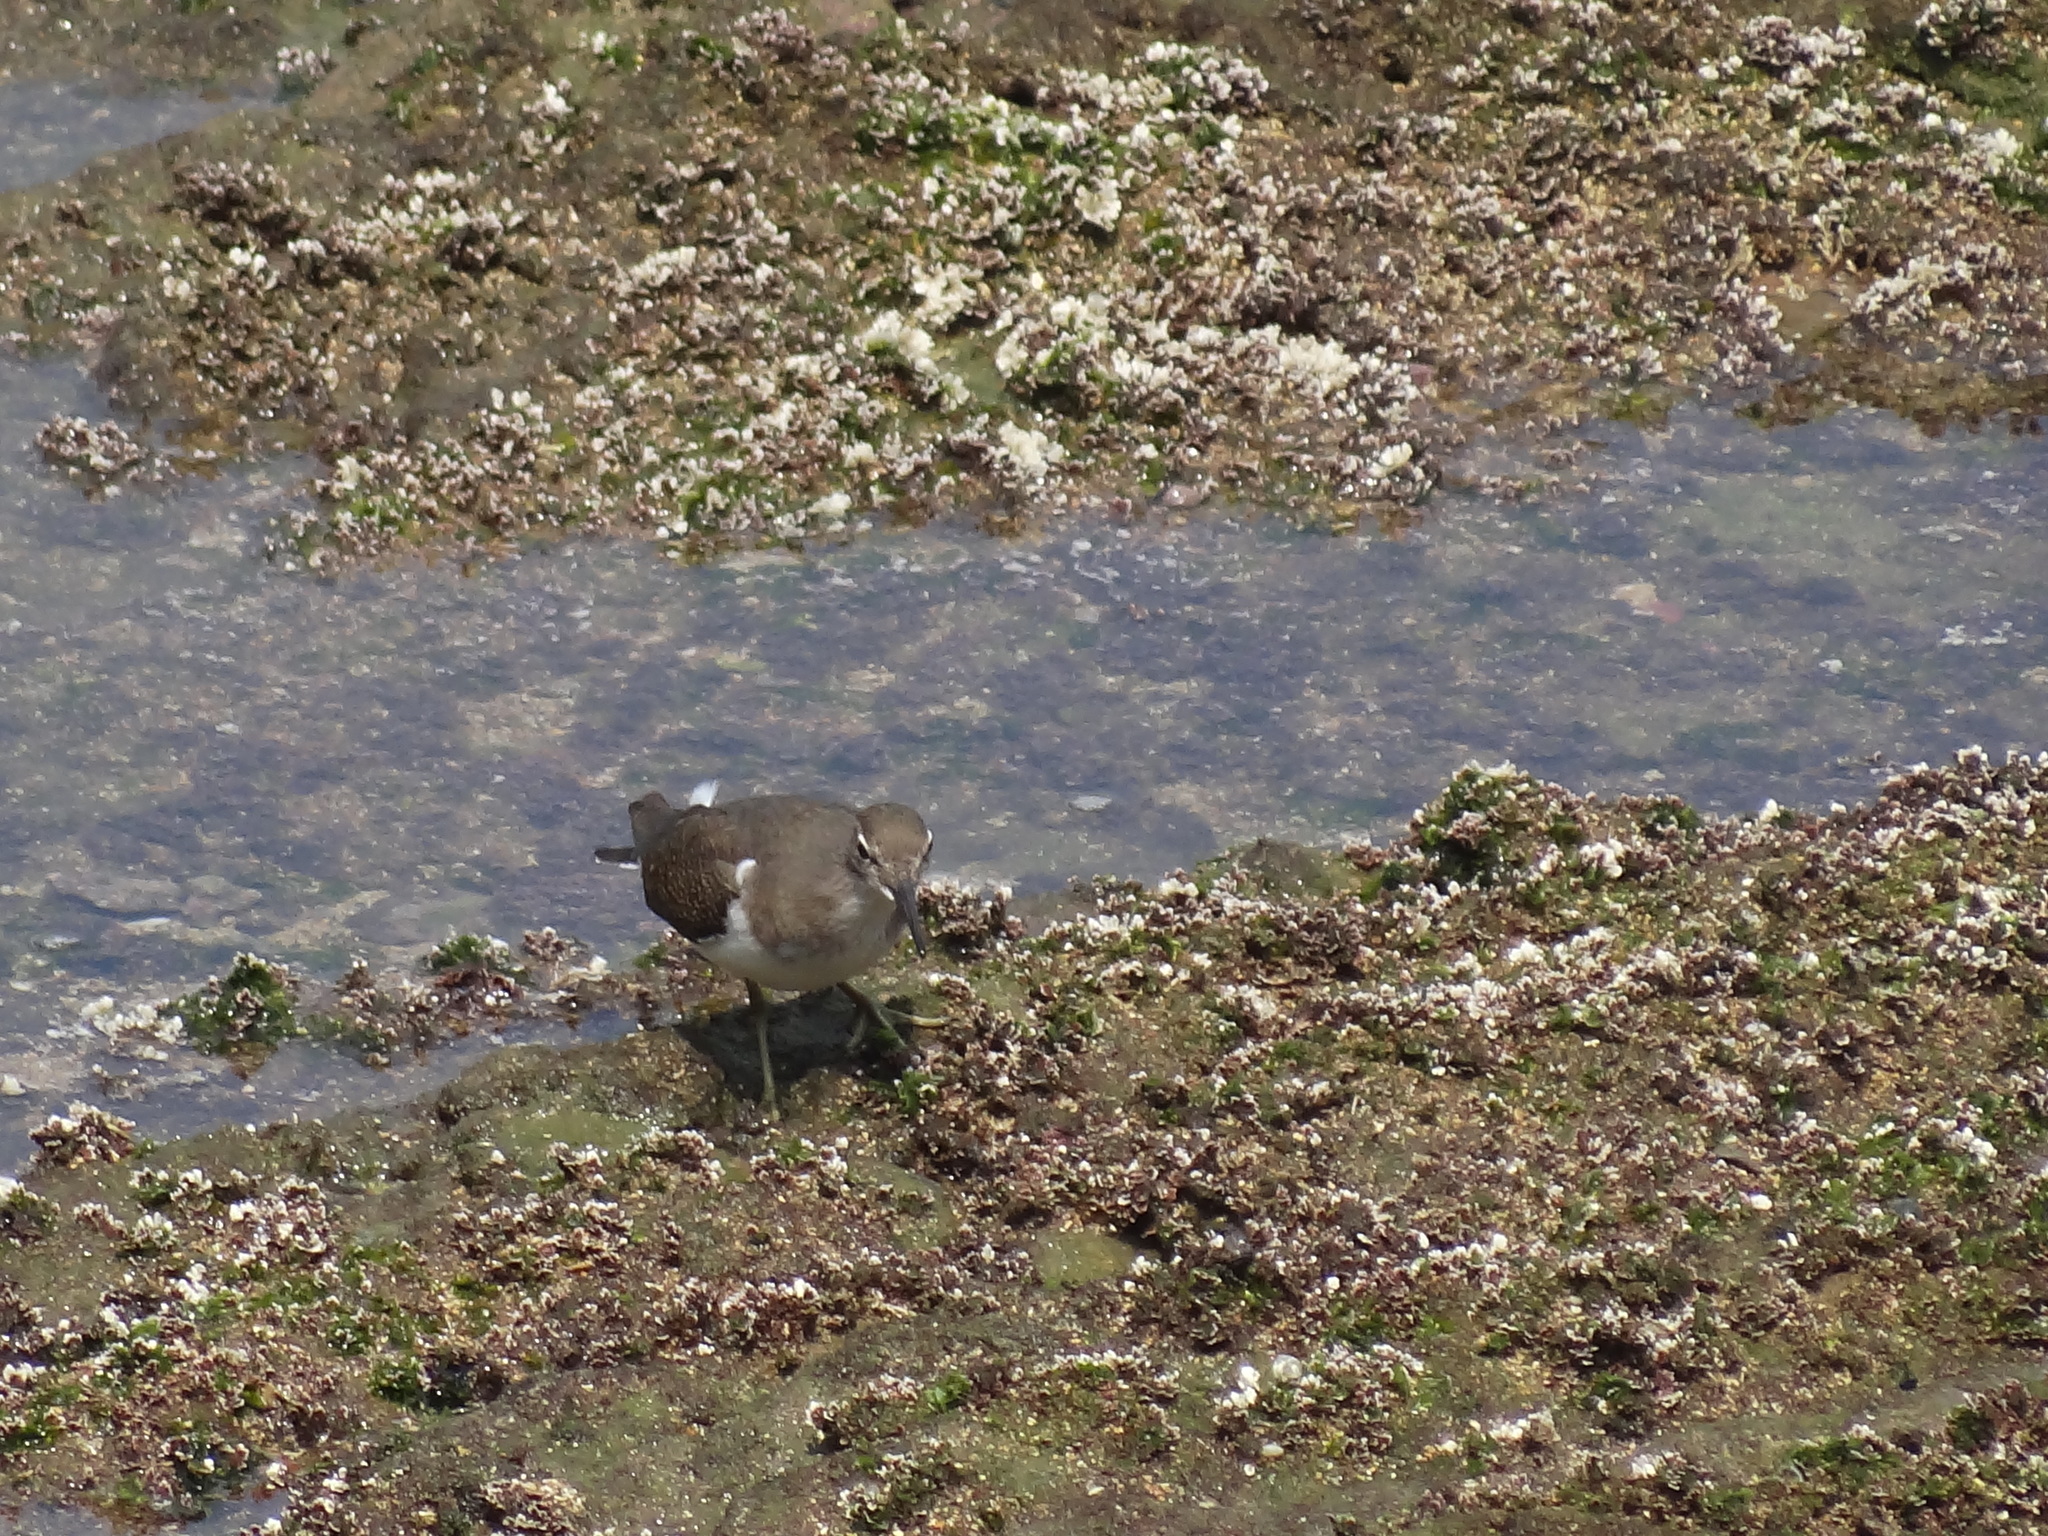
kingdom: Animalia
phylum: Chordata
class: Aves
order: Charadriiformes
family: Scolopacidae
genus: Actitis
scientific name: Actitis hypoleucos
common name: Common sandpiper
